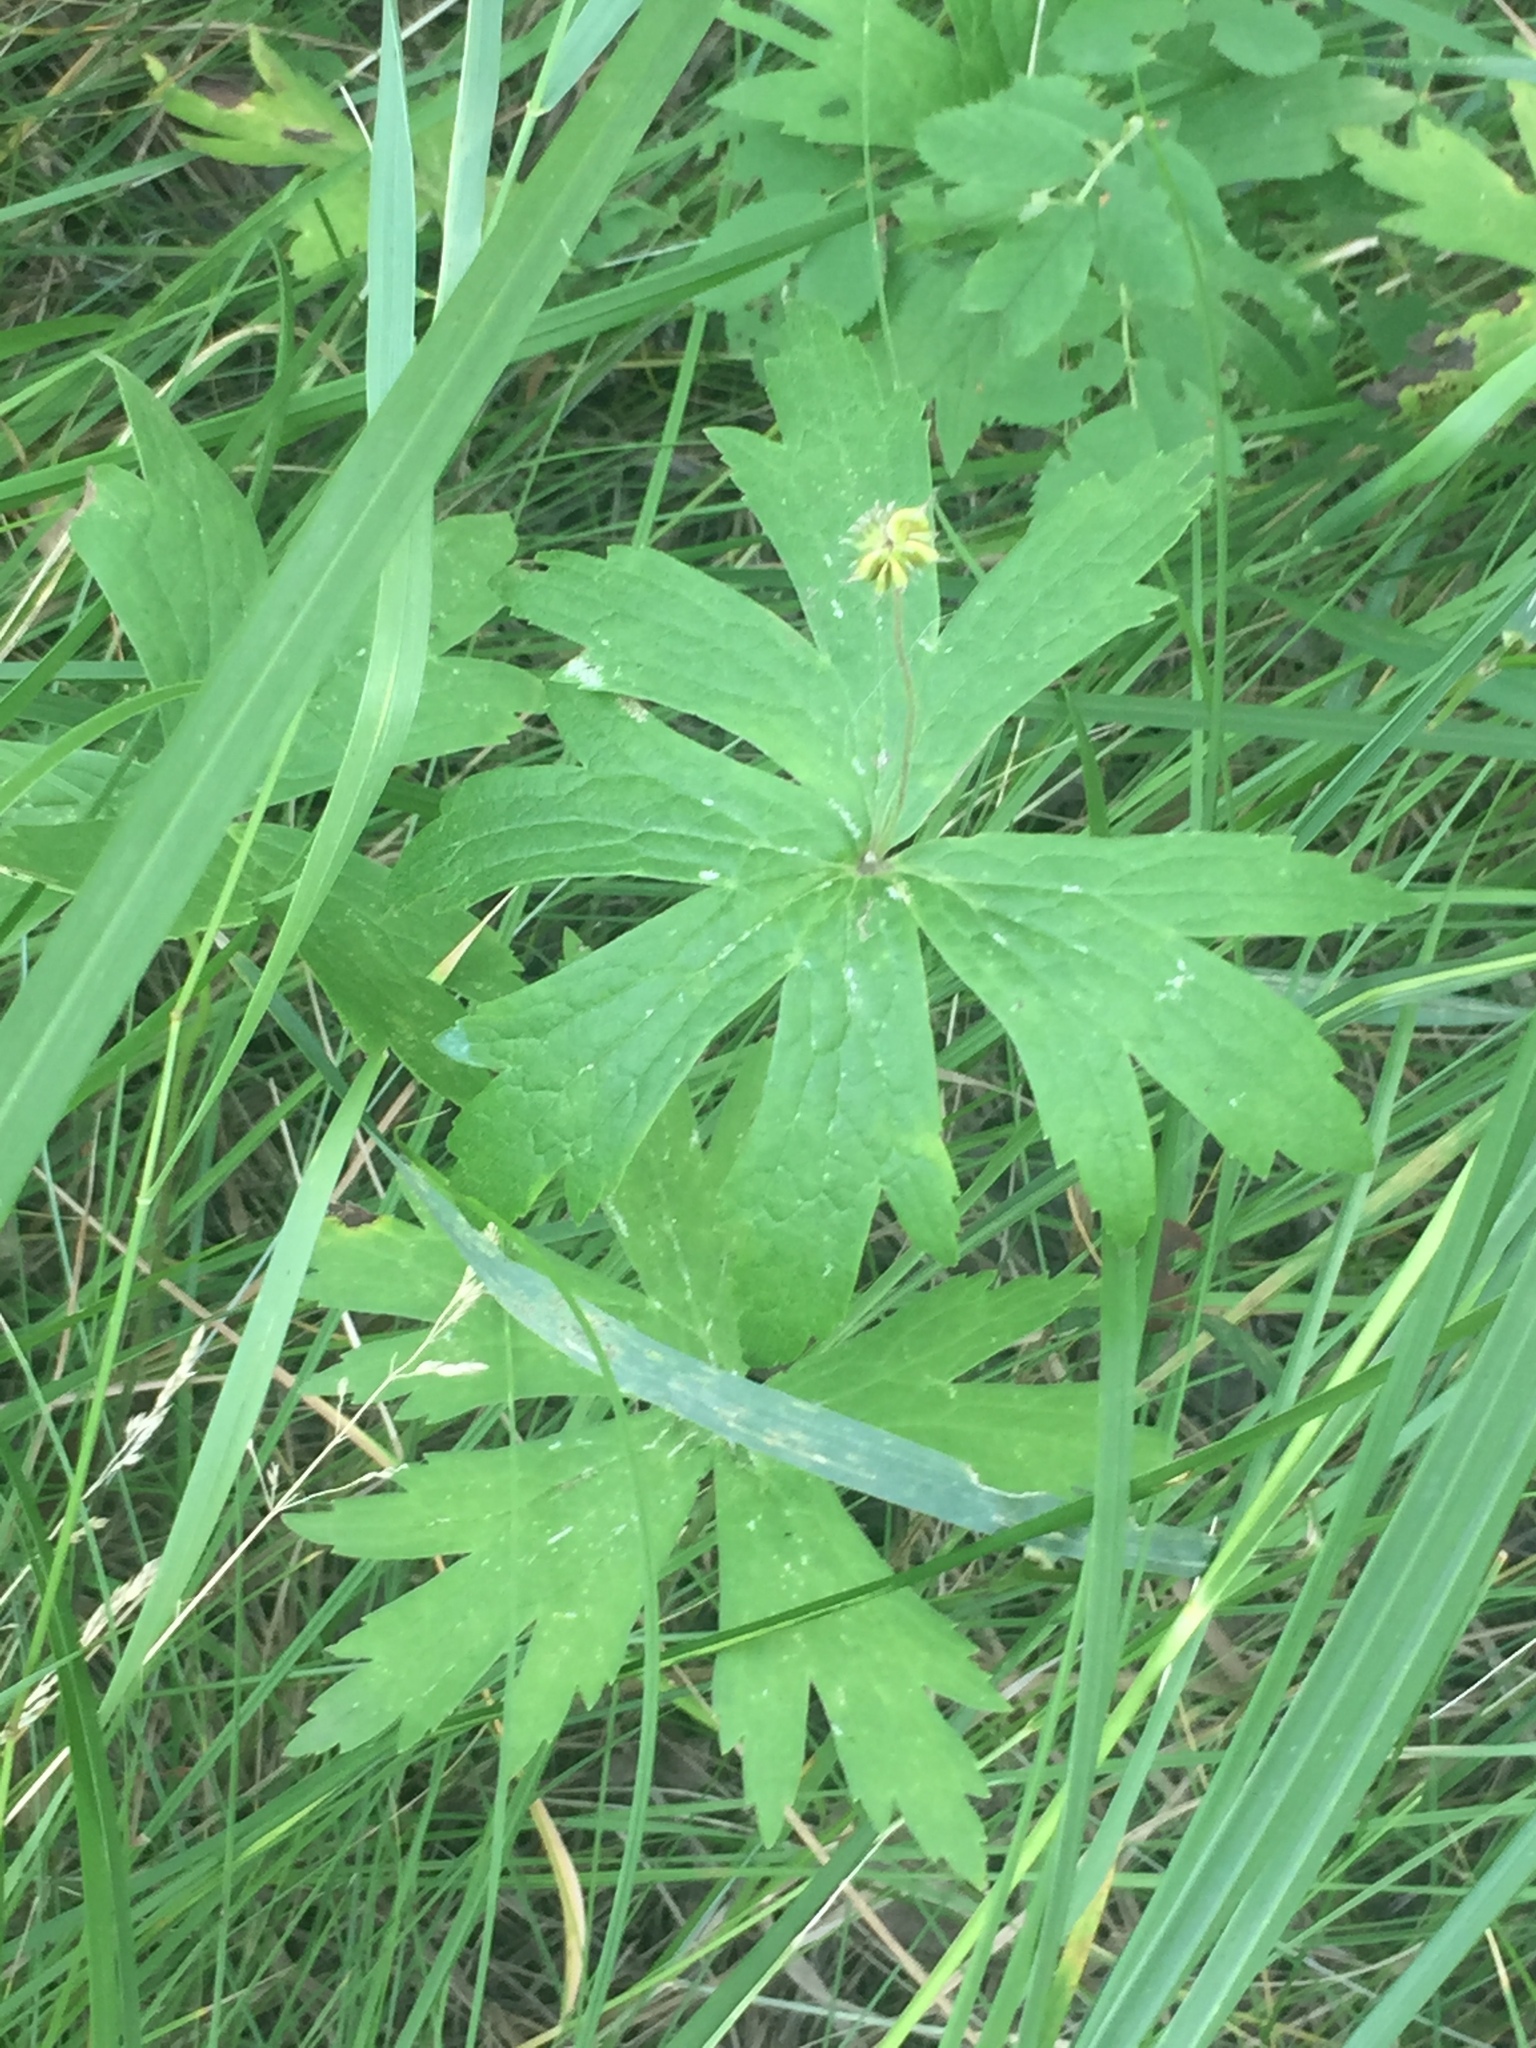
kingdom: Plantae
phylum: Tracheophyta
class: Magnoliopsida
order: Ranunculales
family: Ranunculaceae
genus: Anemonastrum
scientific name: Anemonastrum canadense
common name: Canada anemone
